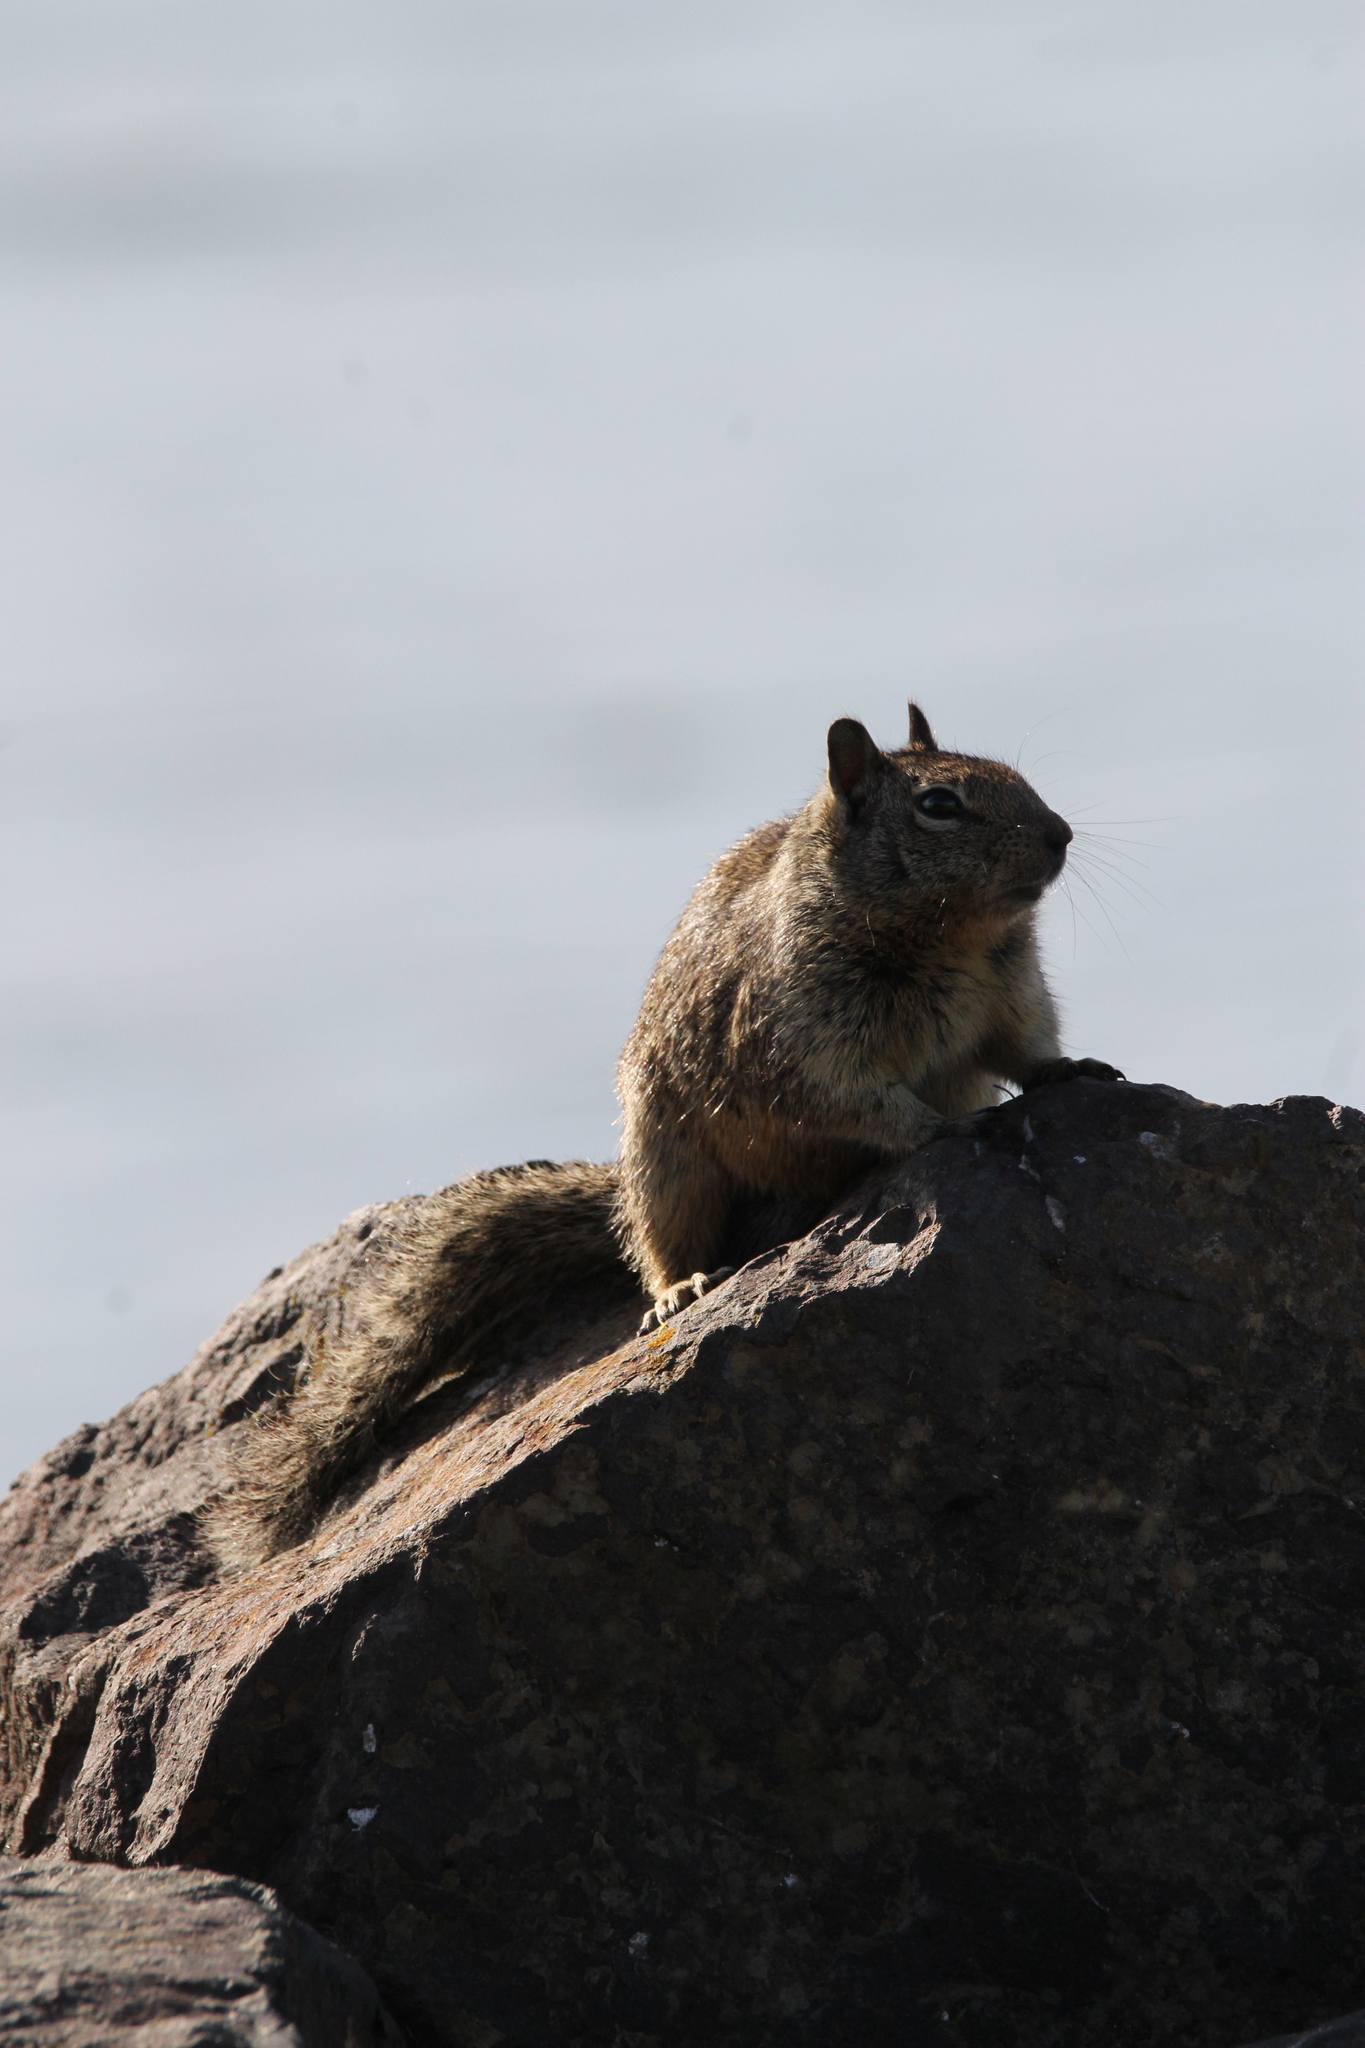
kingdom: Animalia
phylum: Chordata
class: Mammalia
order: Rodentia
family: Sciuridae
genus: Otospermophilus
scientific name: Otospermophilus beecheyi
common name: California ground squirrel
